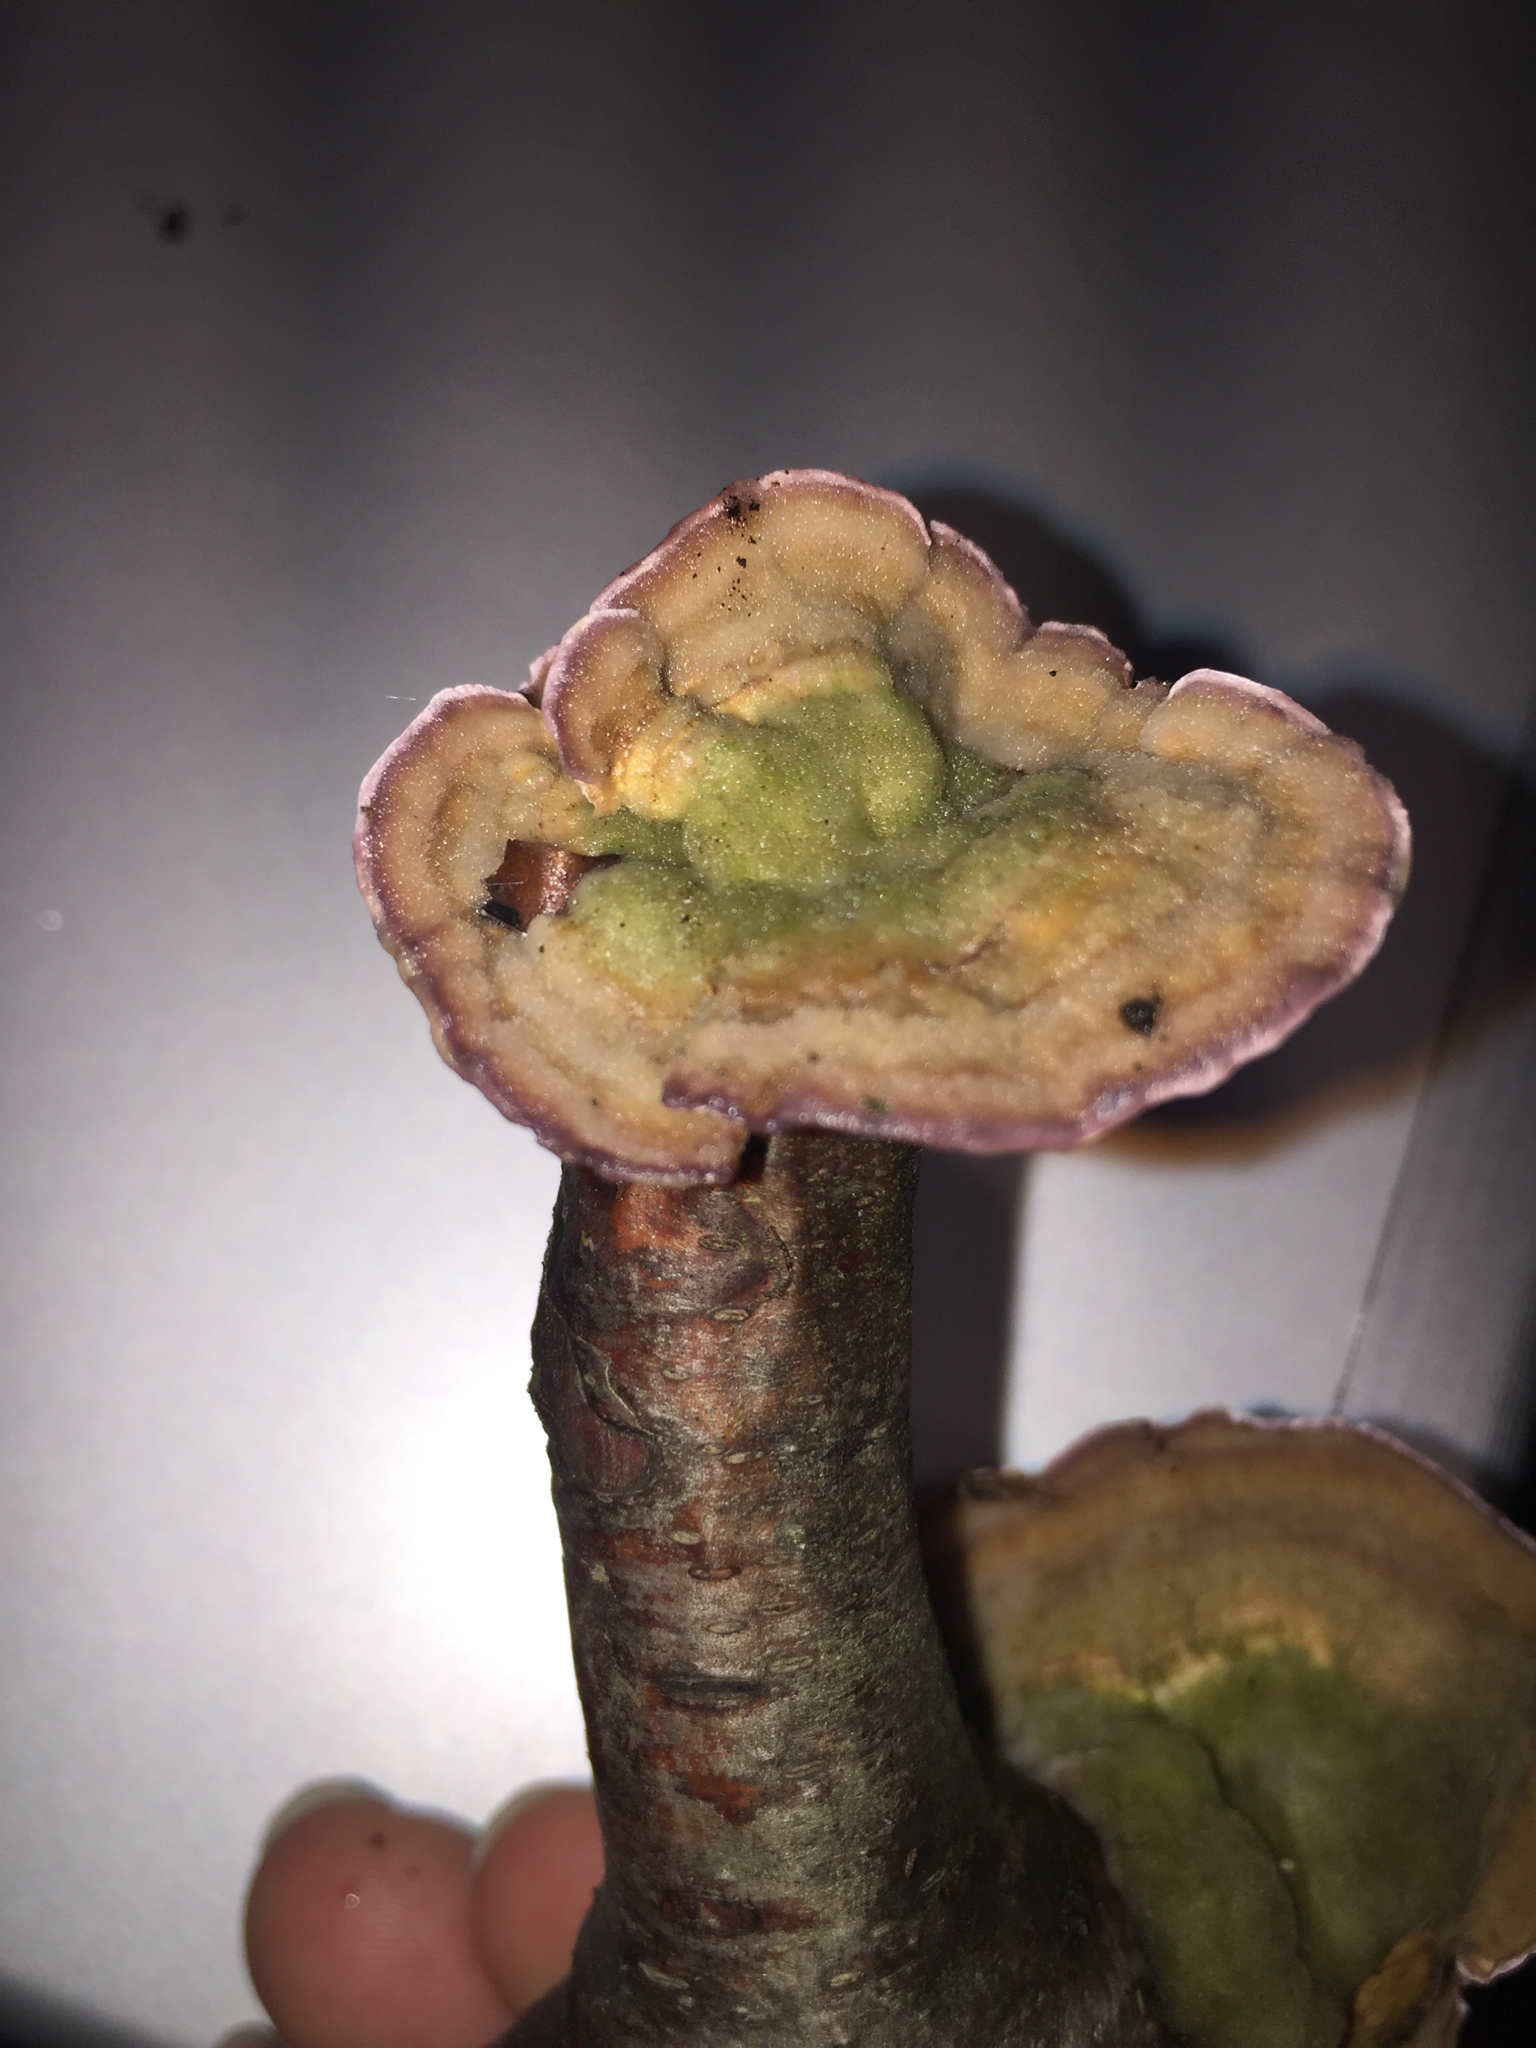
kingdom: Fungi
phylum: Basidiomycota
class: Agaricomycetes
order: Hymenochaetales
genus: Trichaptum
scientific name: Trichaptum biforme
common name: Violet-toothed polypore
